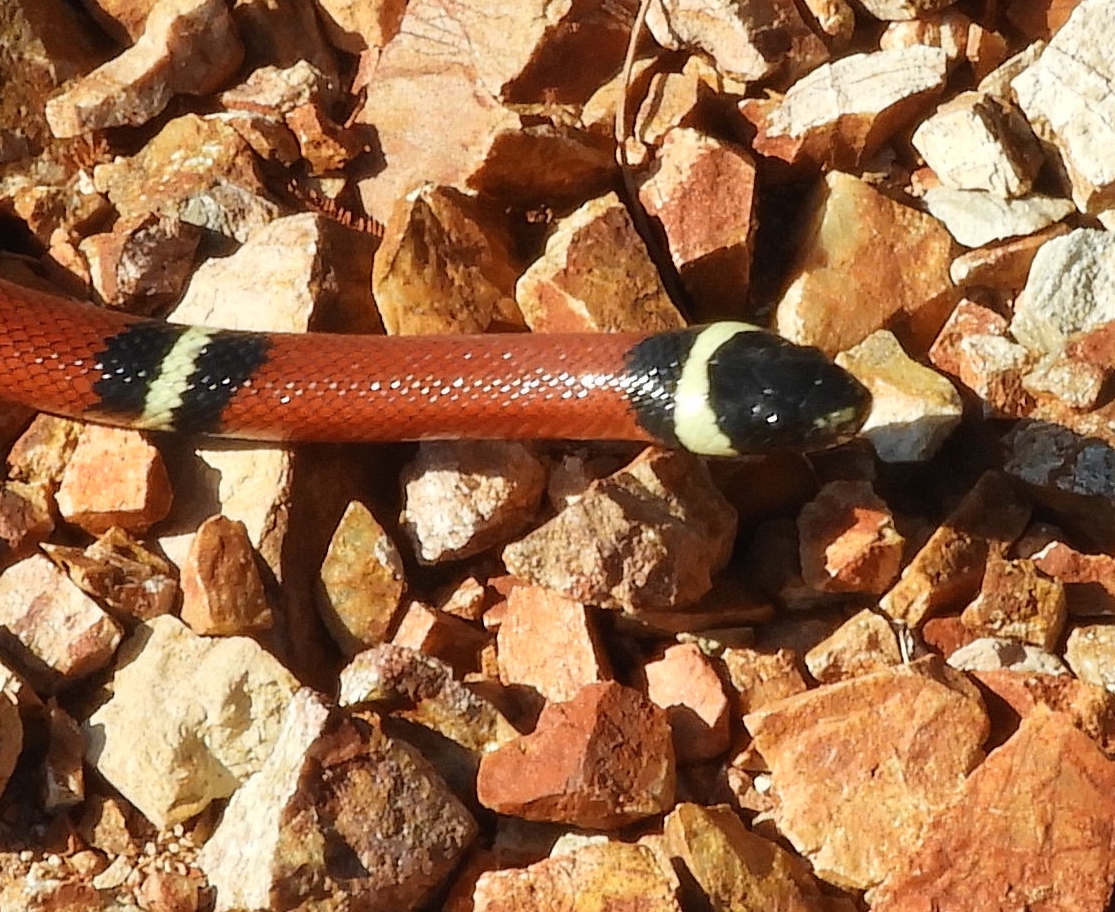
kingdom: Animalia
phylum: Chordata
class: Squamata
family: Colubridae
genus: Lampropeltis
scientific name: Lampropeltis polyzona
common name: Atlantic central american milksnake
